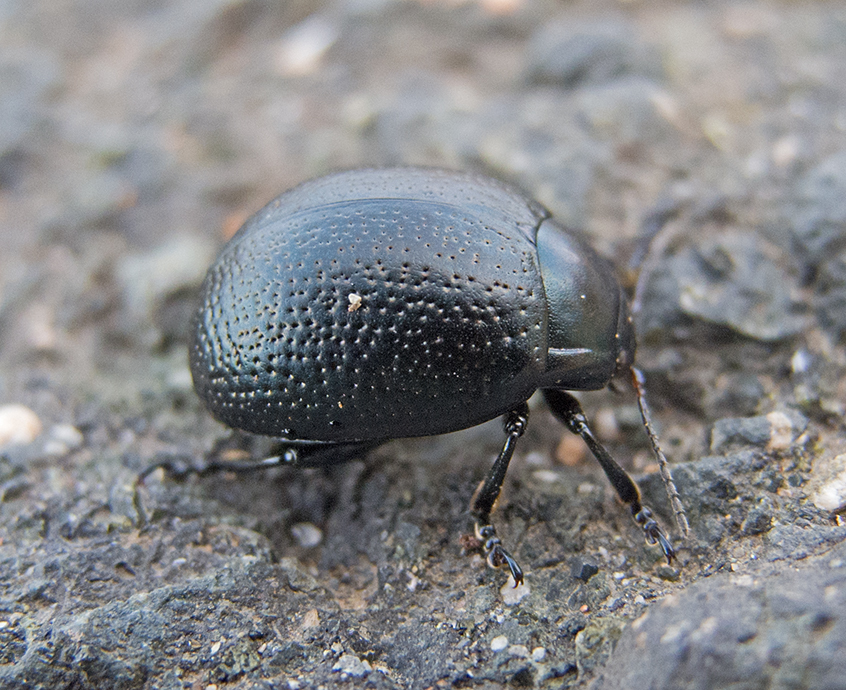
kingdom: Animalia
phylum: Arthropoda
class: Insecta
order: Coleoptera
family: Chrysomelidae
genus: Chrysolina
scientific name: Chrysolina vernalis
